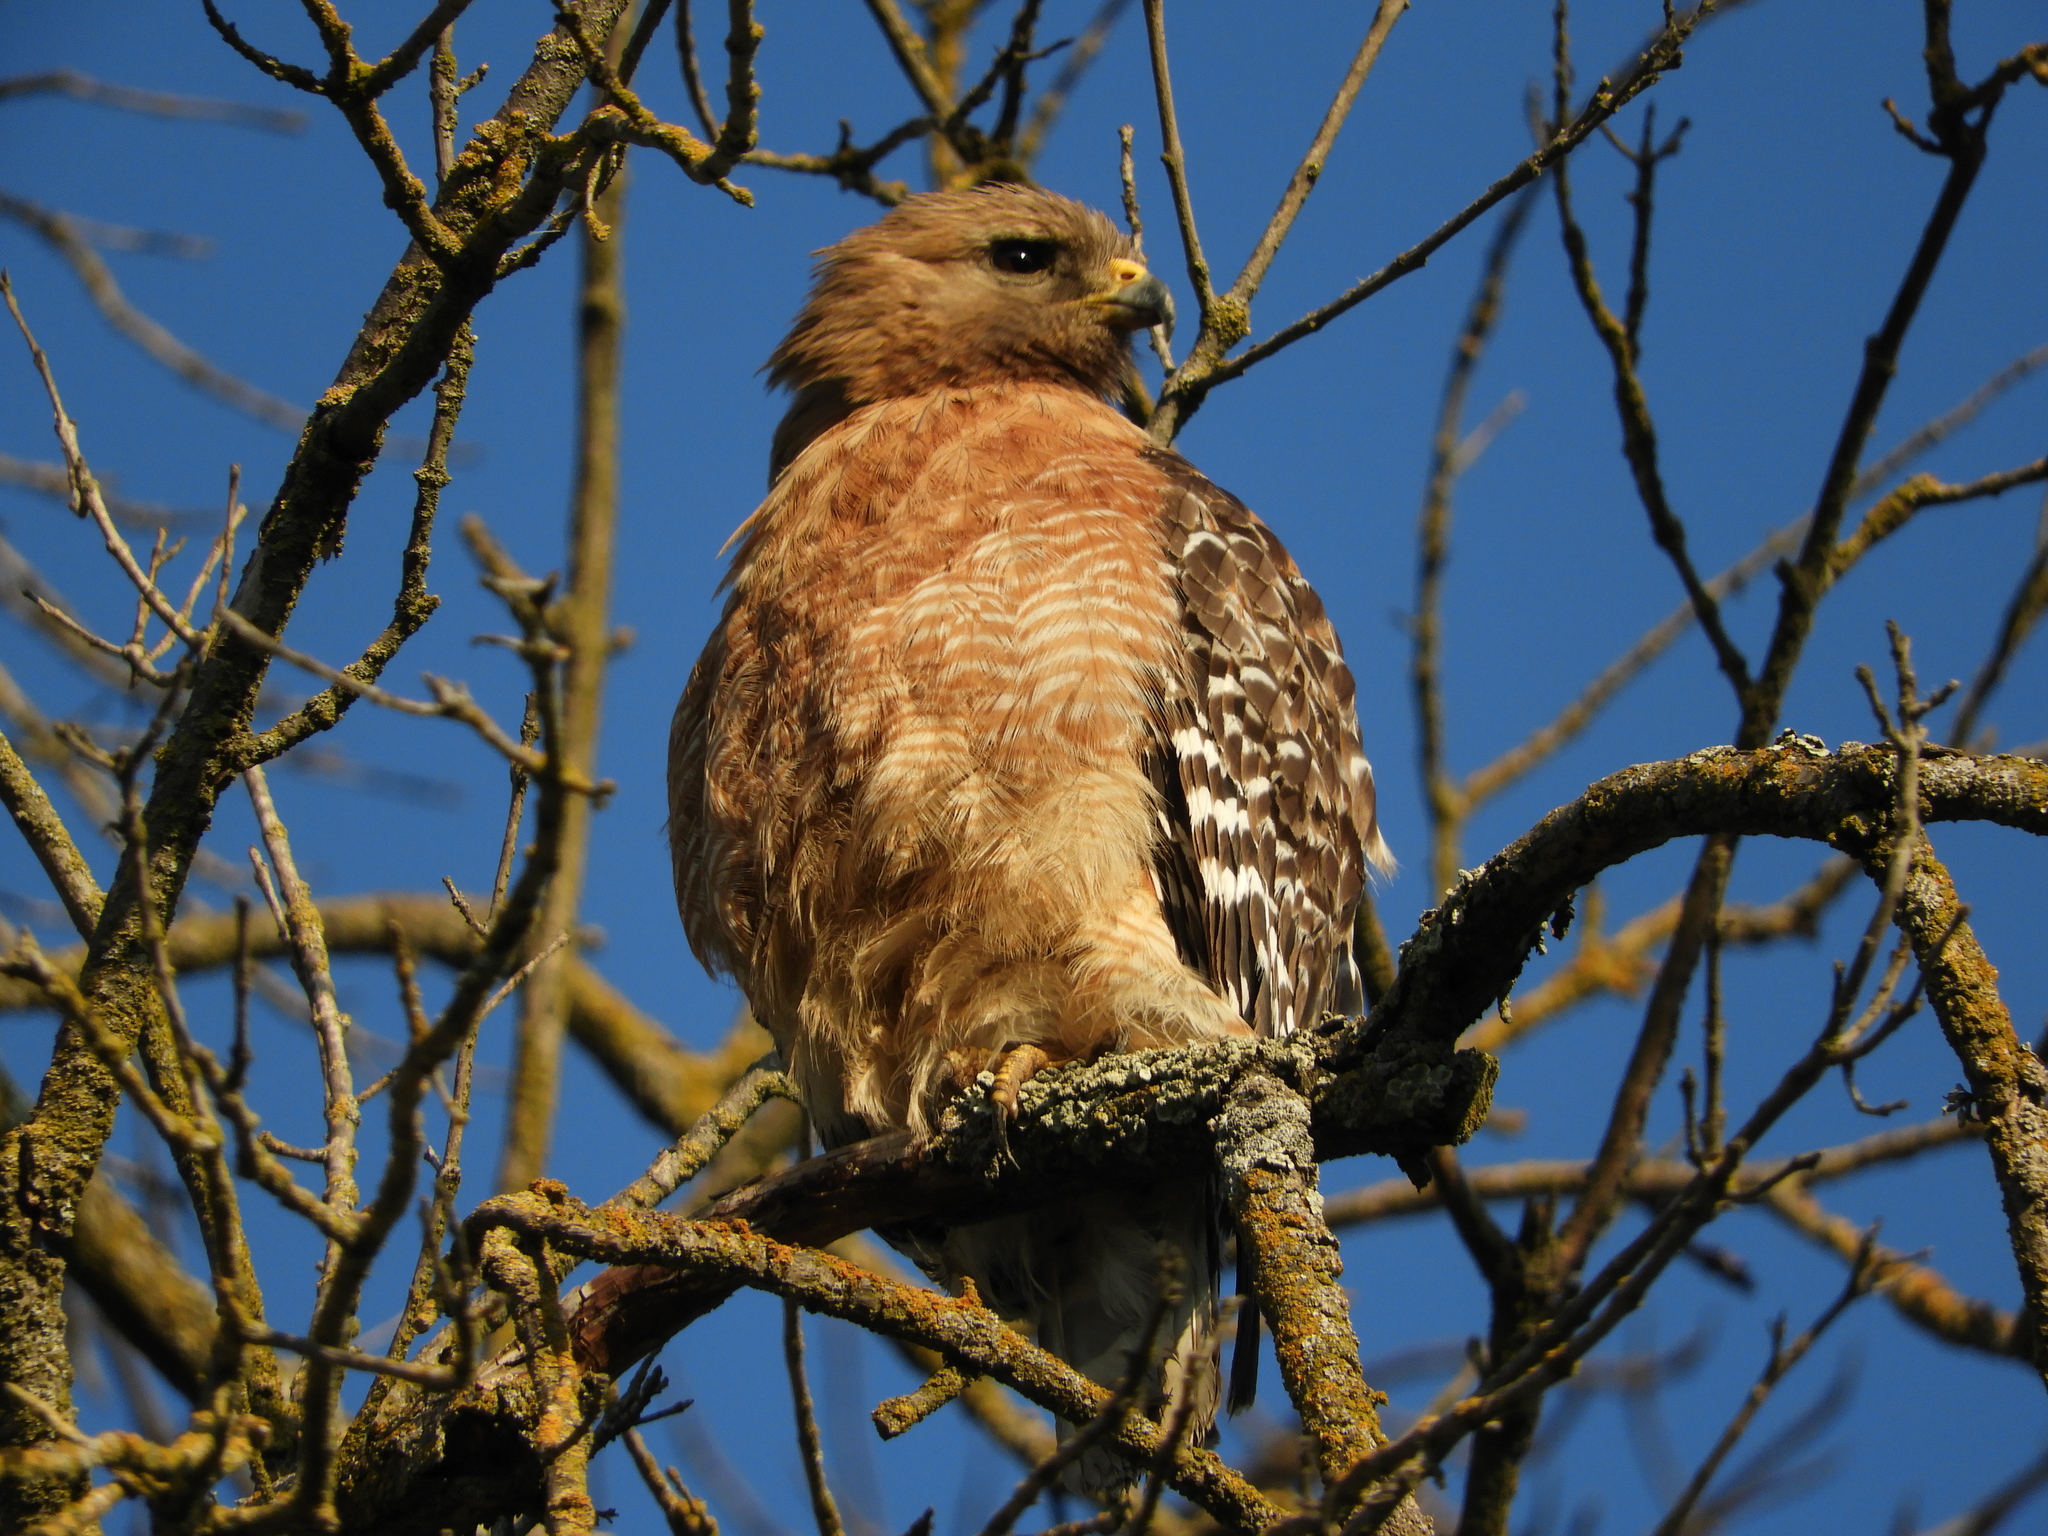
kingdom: Animalia
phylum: Chordata
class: Aves
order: Accipitriformes
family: Accipitridae
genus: Buteo
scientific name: Buteo lineatus
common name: Red-shouldered hawk
